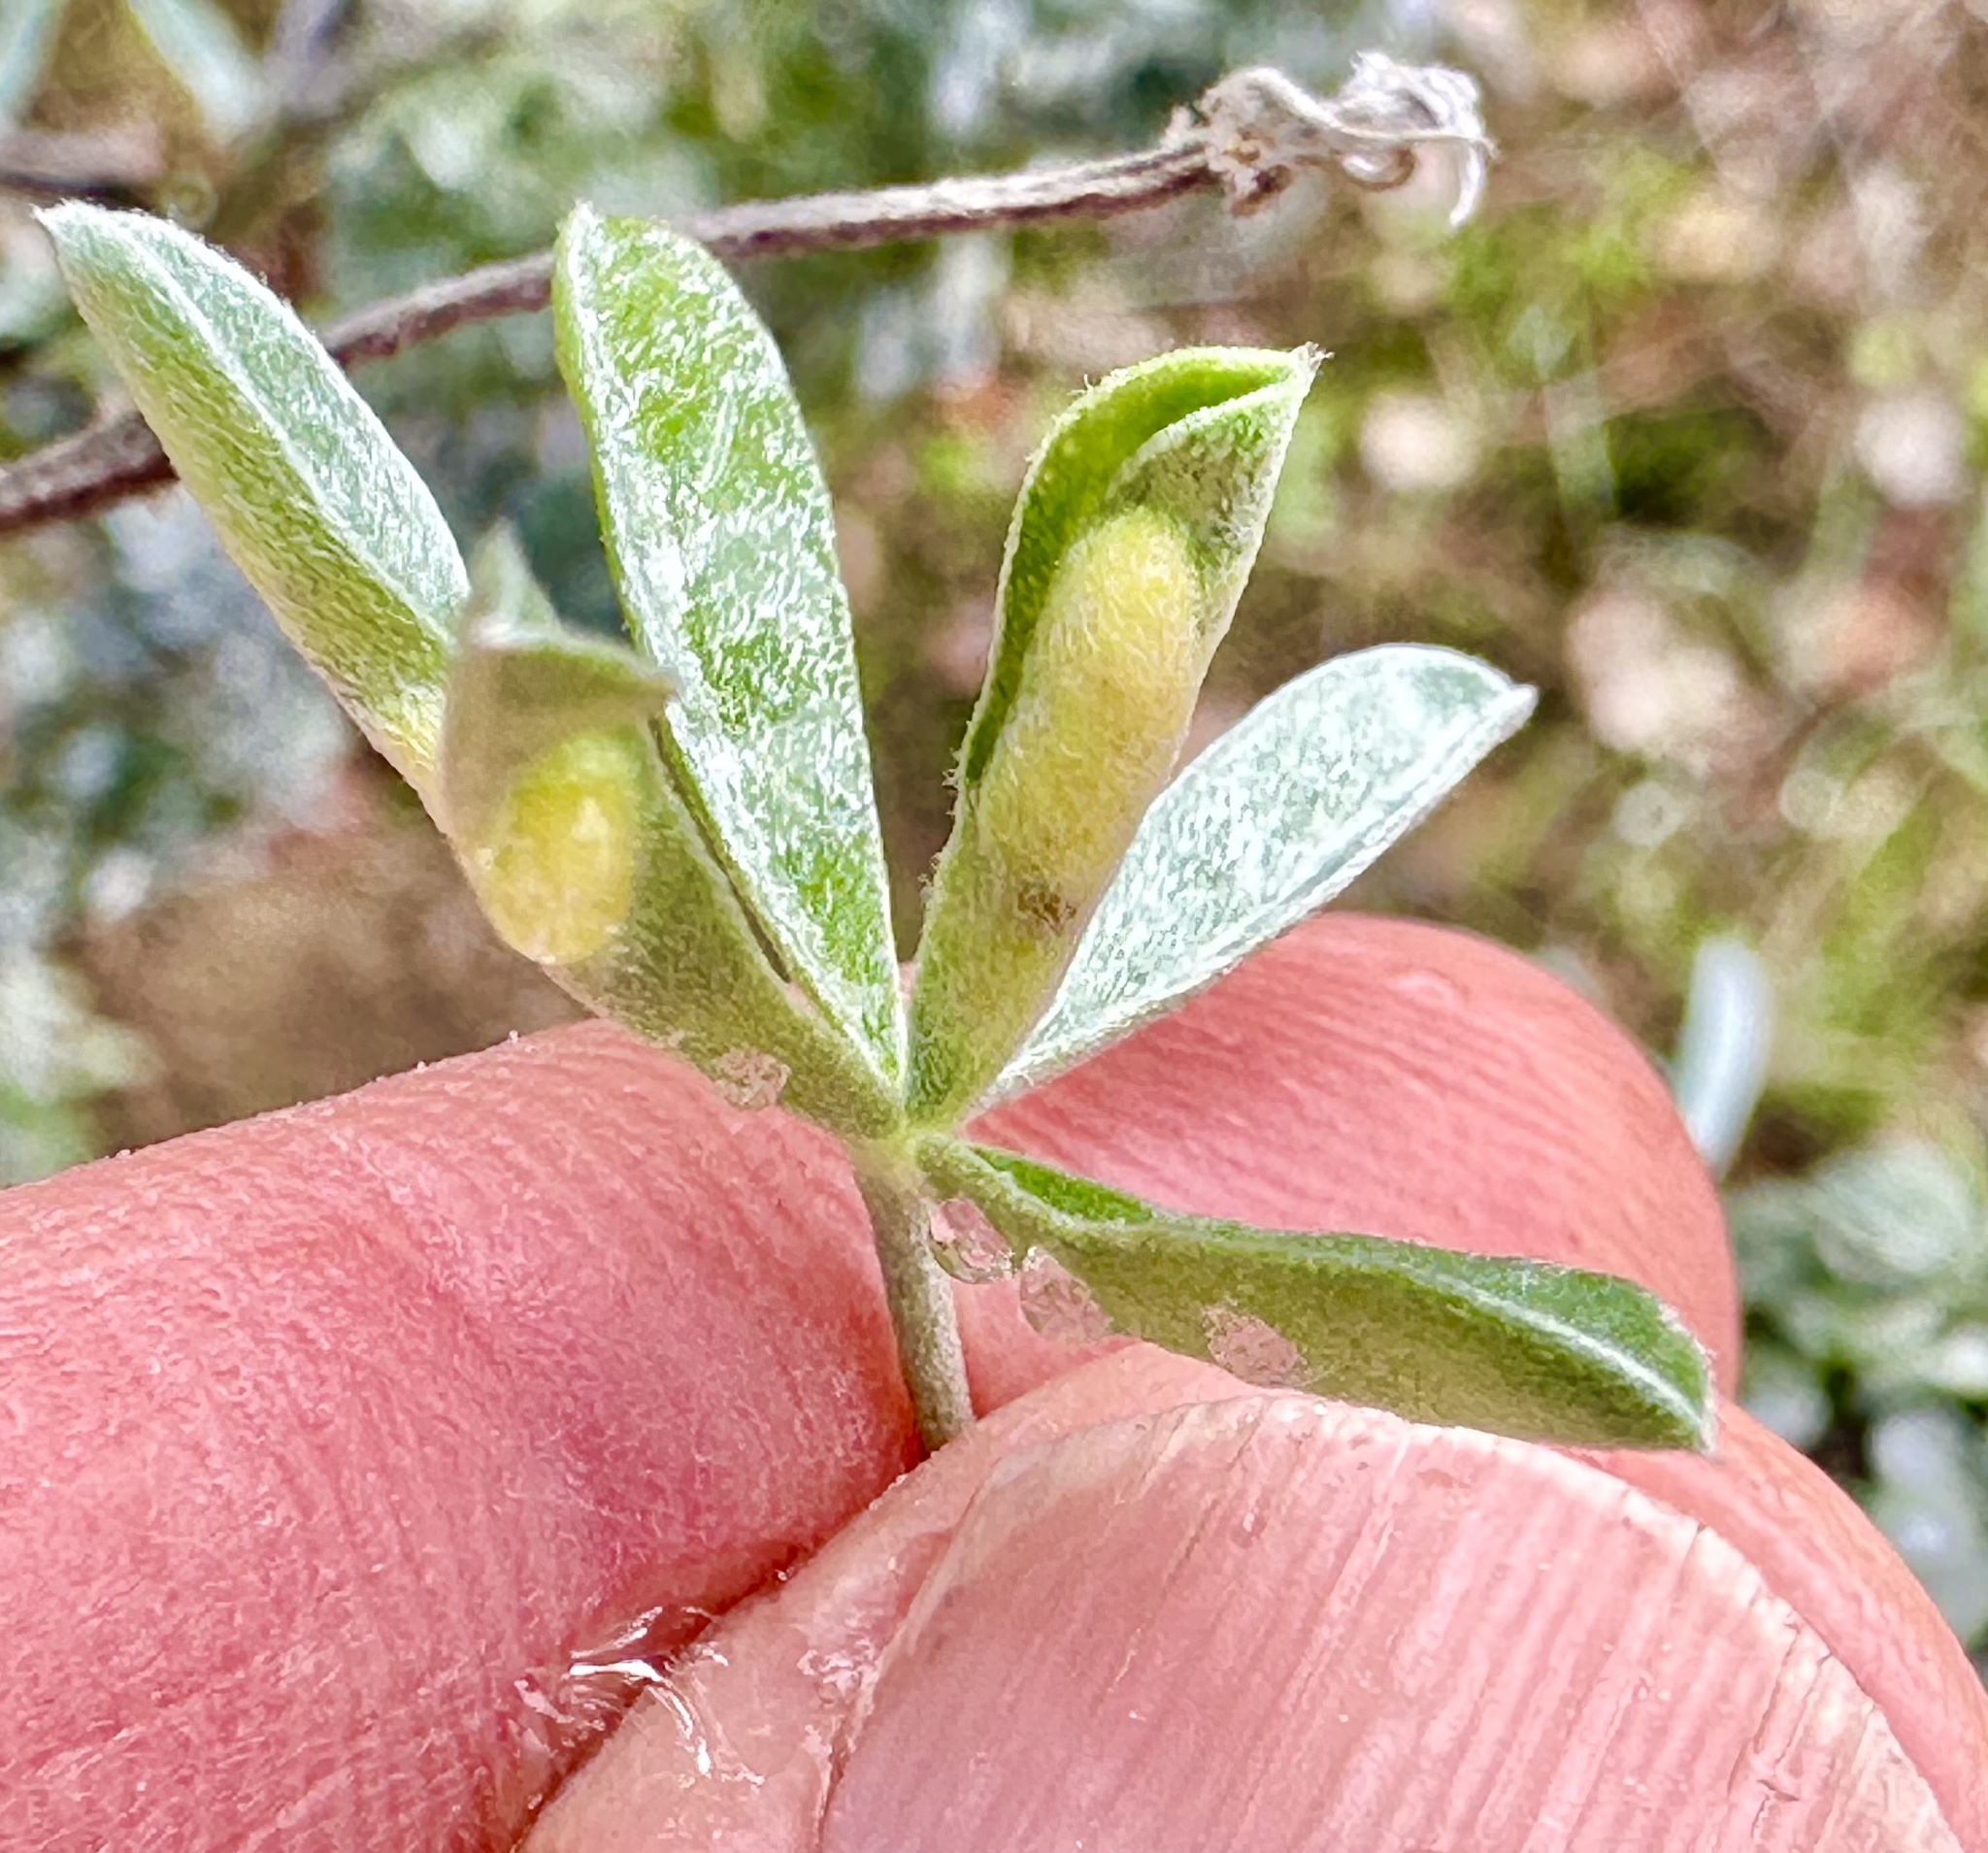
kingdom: Animalia
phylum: Arthropoda
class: Insecta
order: Diptera
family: Cecidomyiidae
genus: Dasineura
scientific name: Dasineura lupinorum
